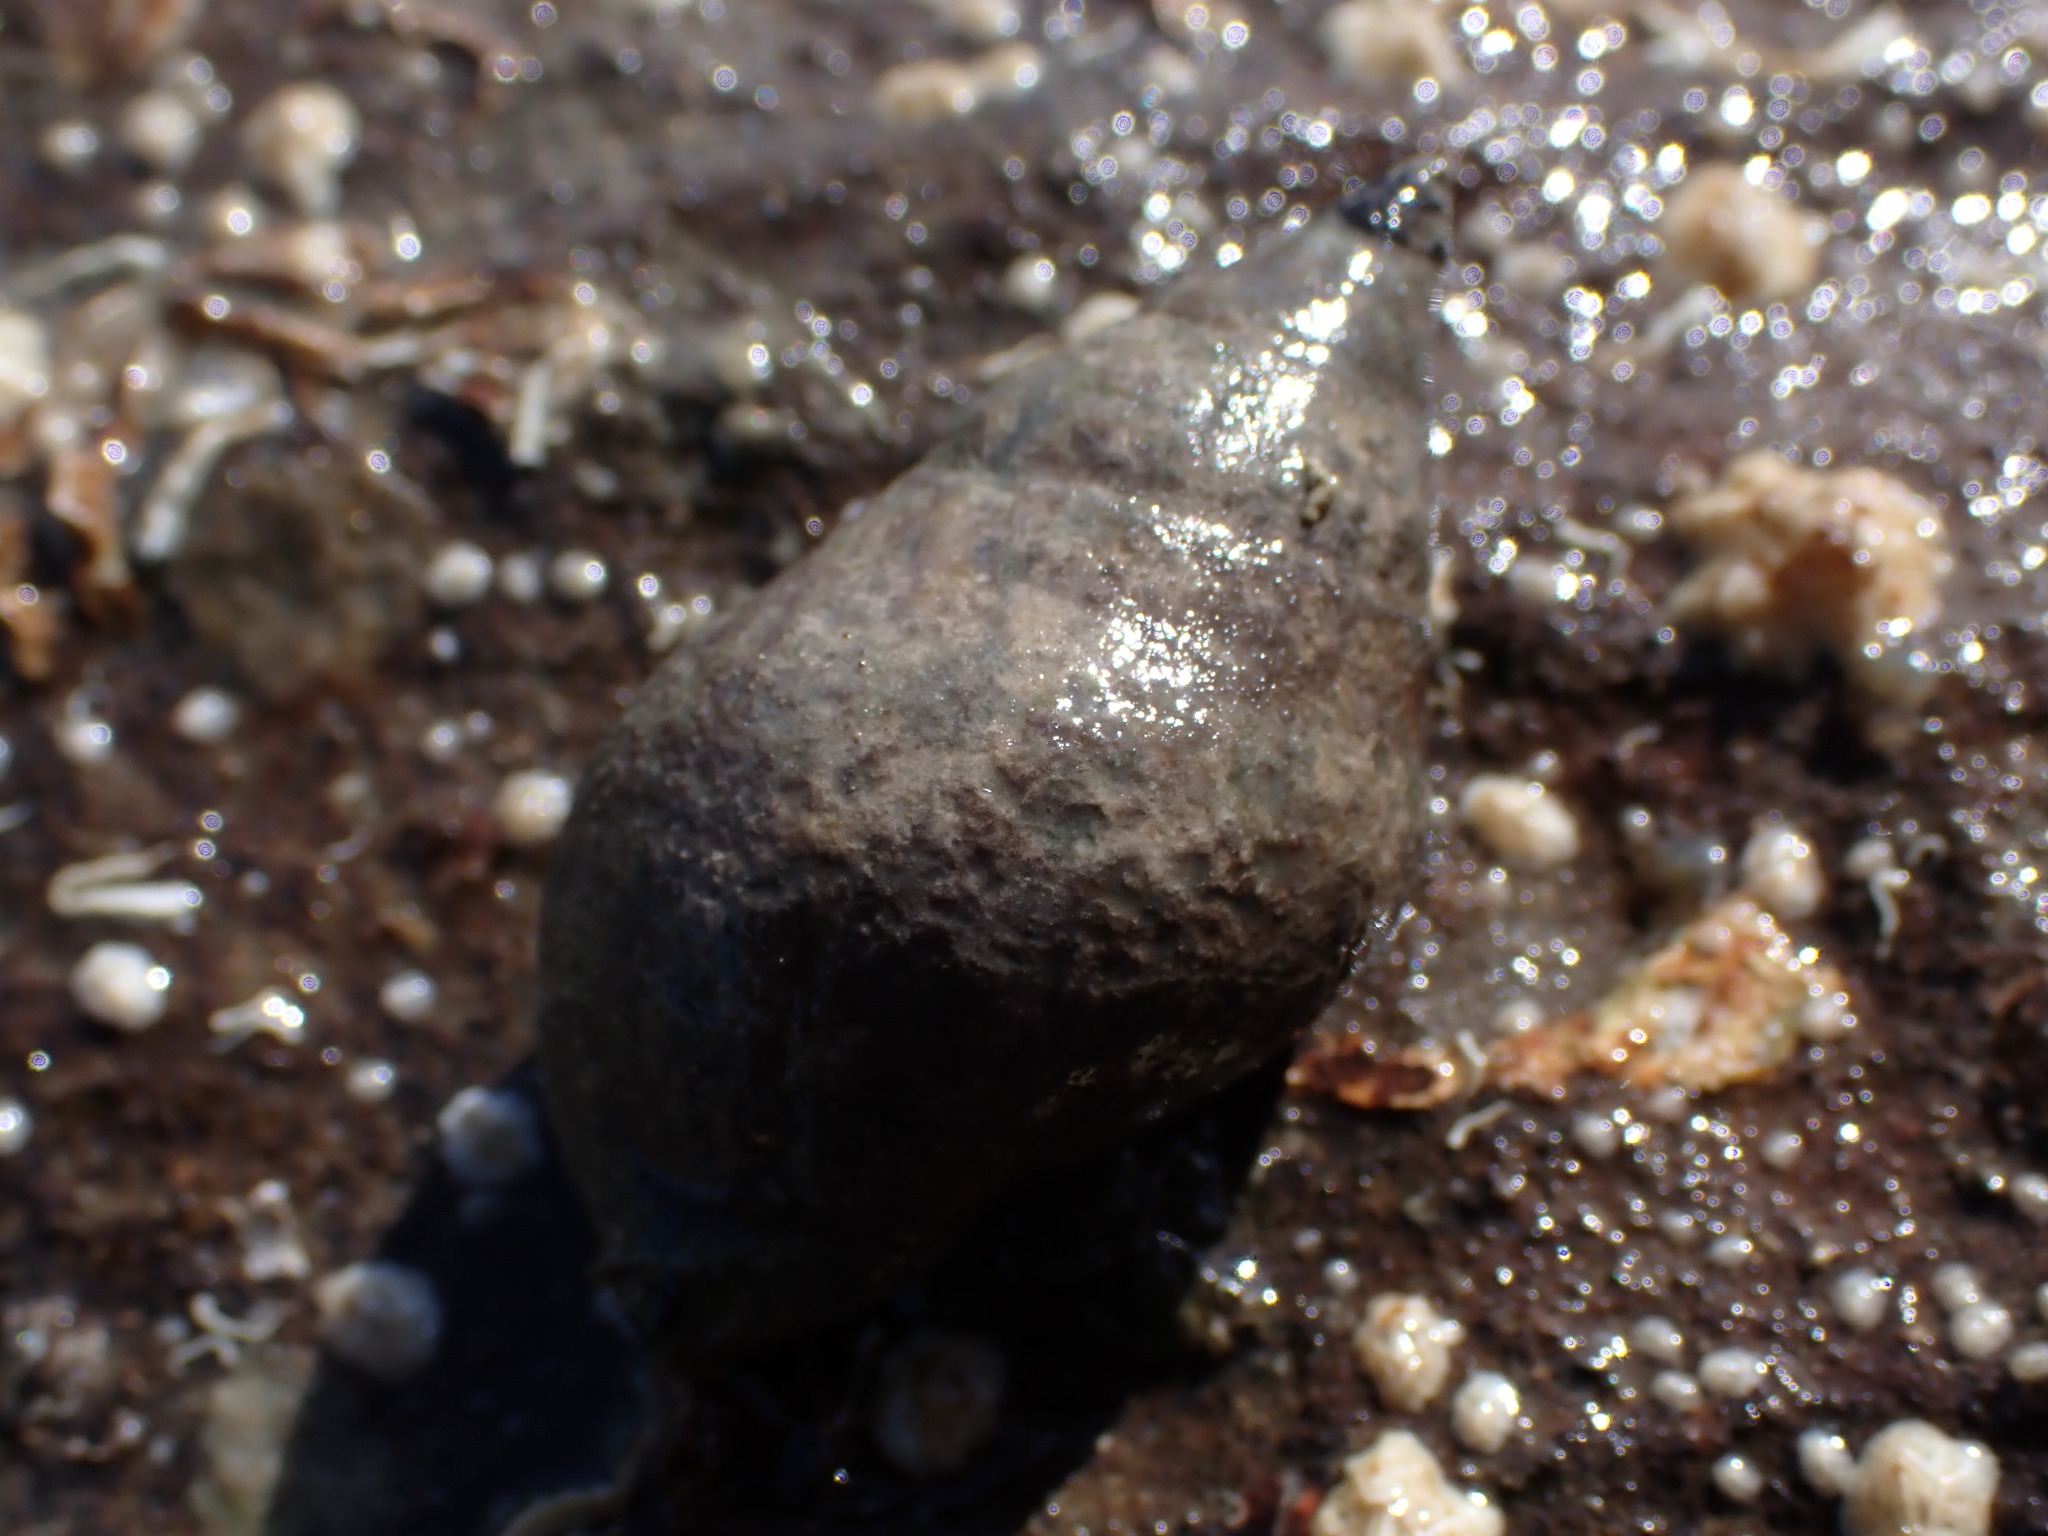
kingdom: Animalia
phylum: Mollusca
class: Gastropoda
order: Neogastropoda
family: Cominellidae
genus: Cominella
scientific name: Cominella maculosa
